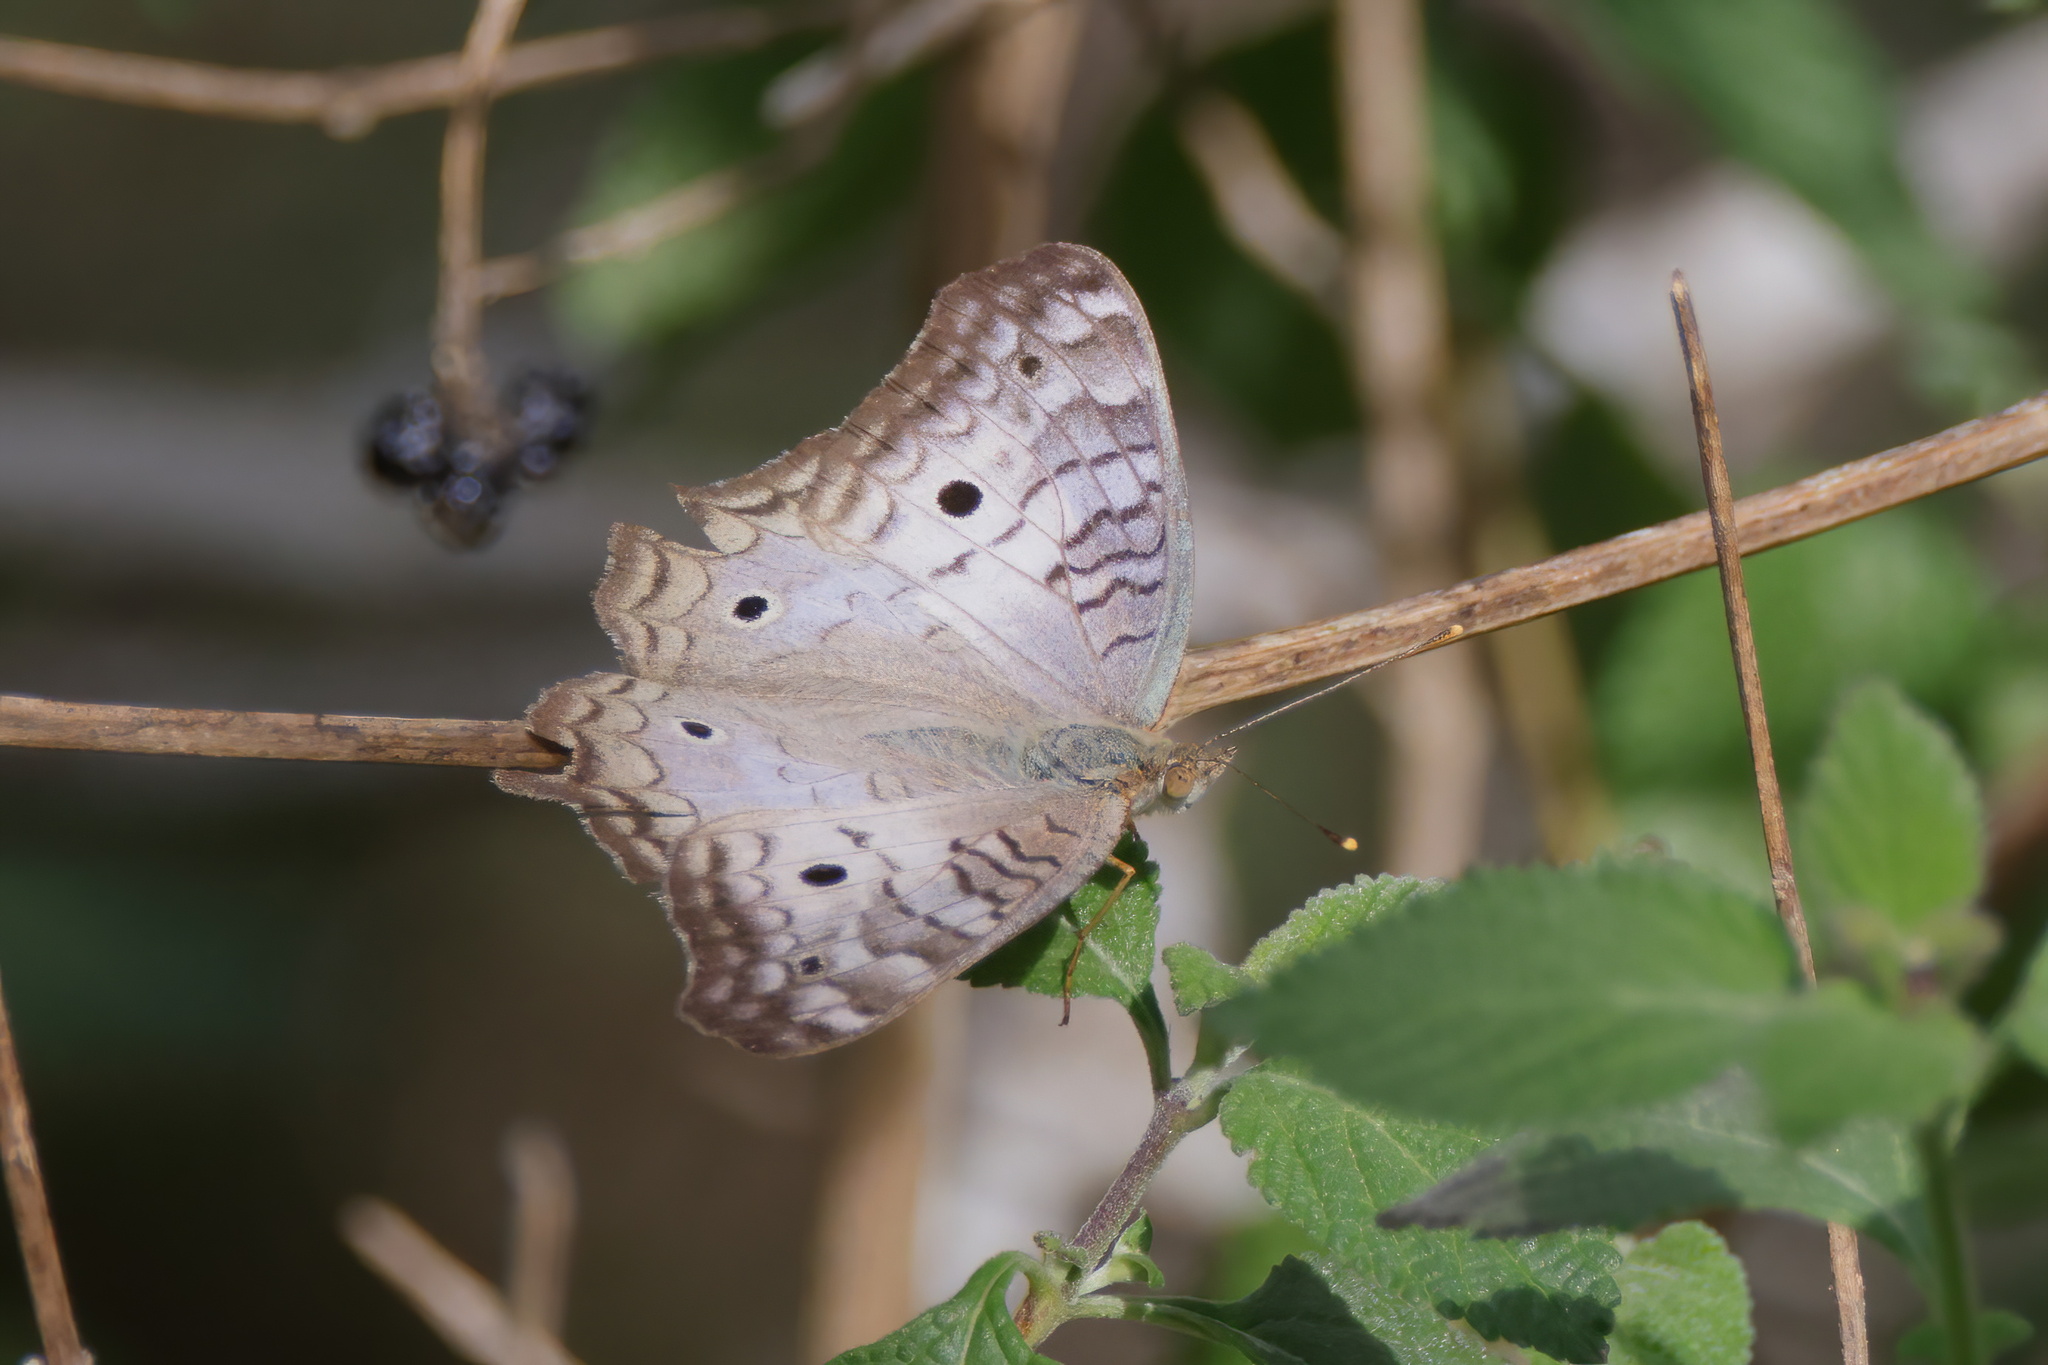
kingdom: Animalia
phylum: Arthropoda
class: Insecta
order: Lepidoptera
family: Nymphalidae
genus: Anartia
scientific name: Anartia jatrophae
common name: White peacock
